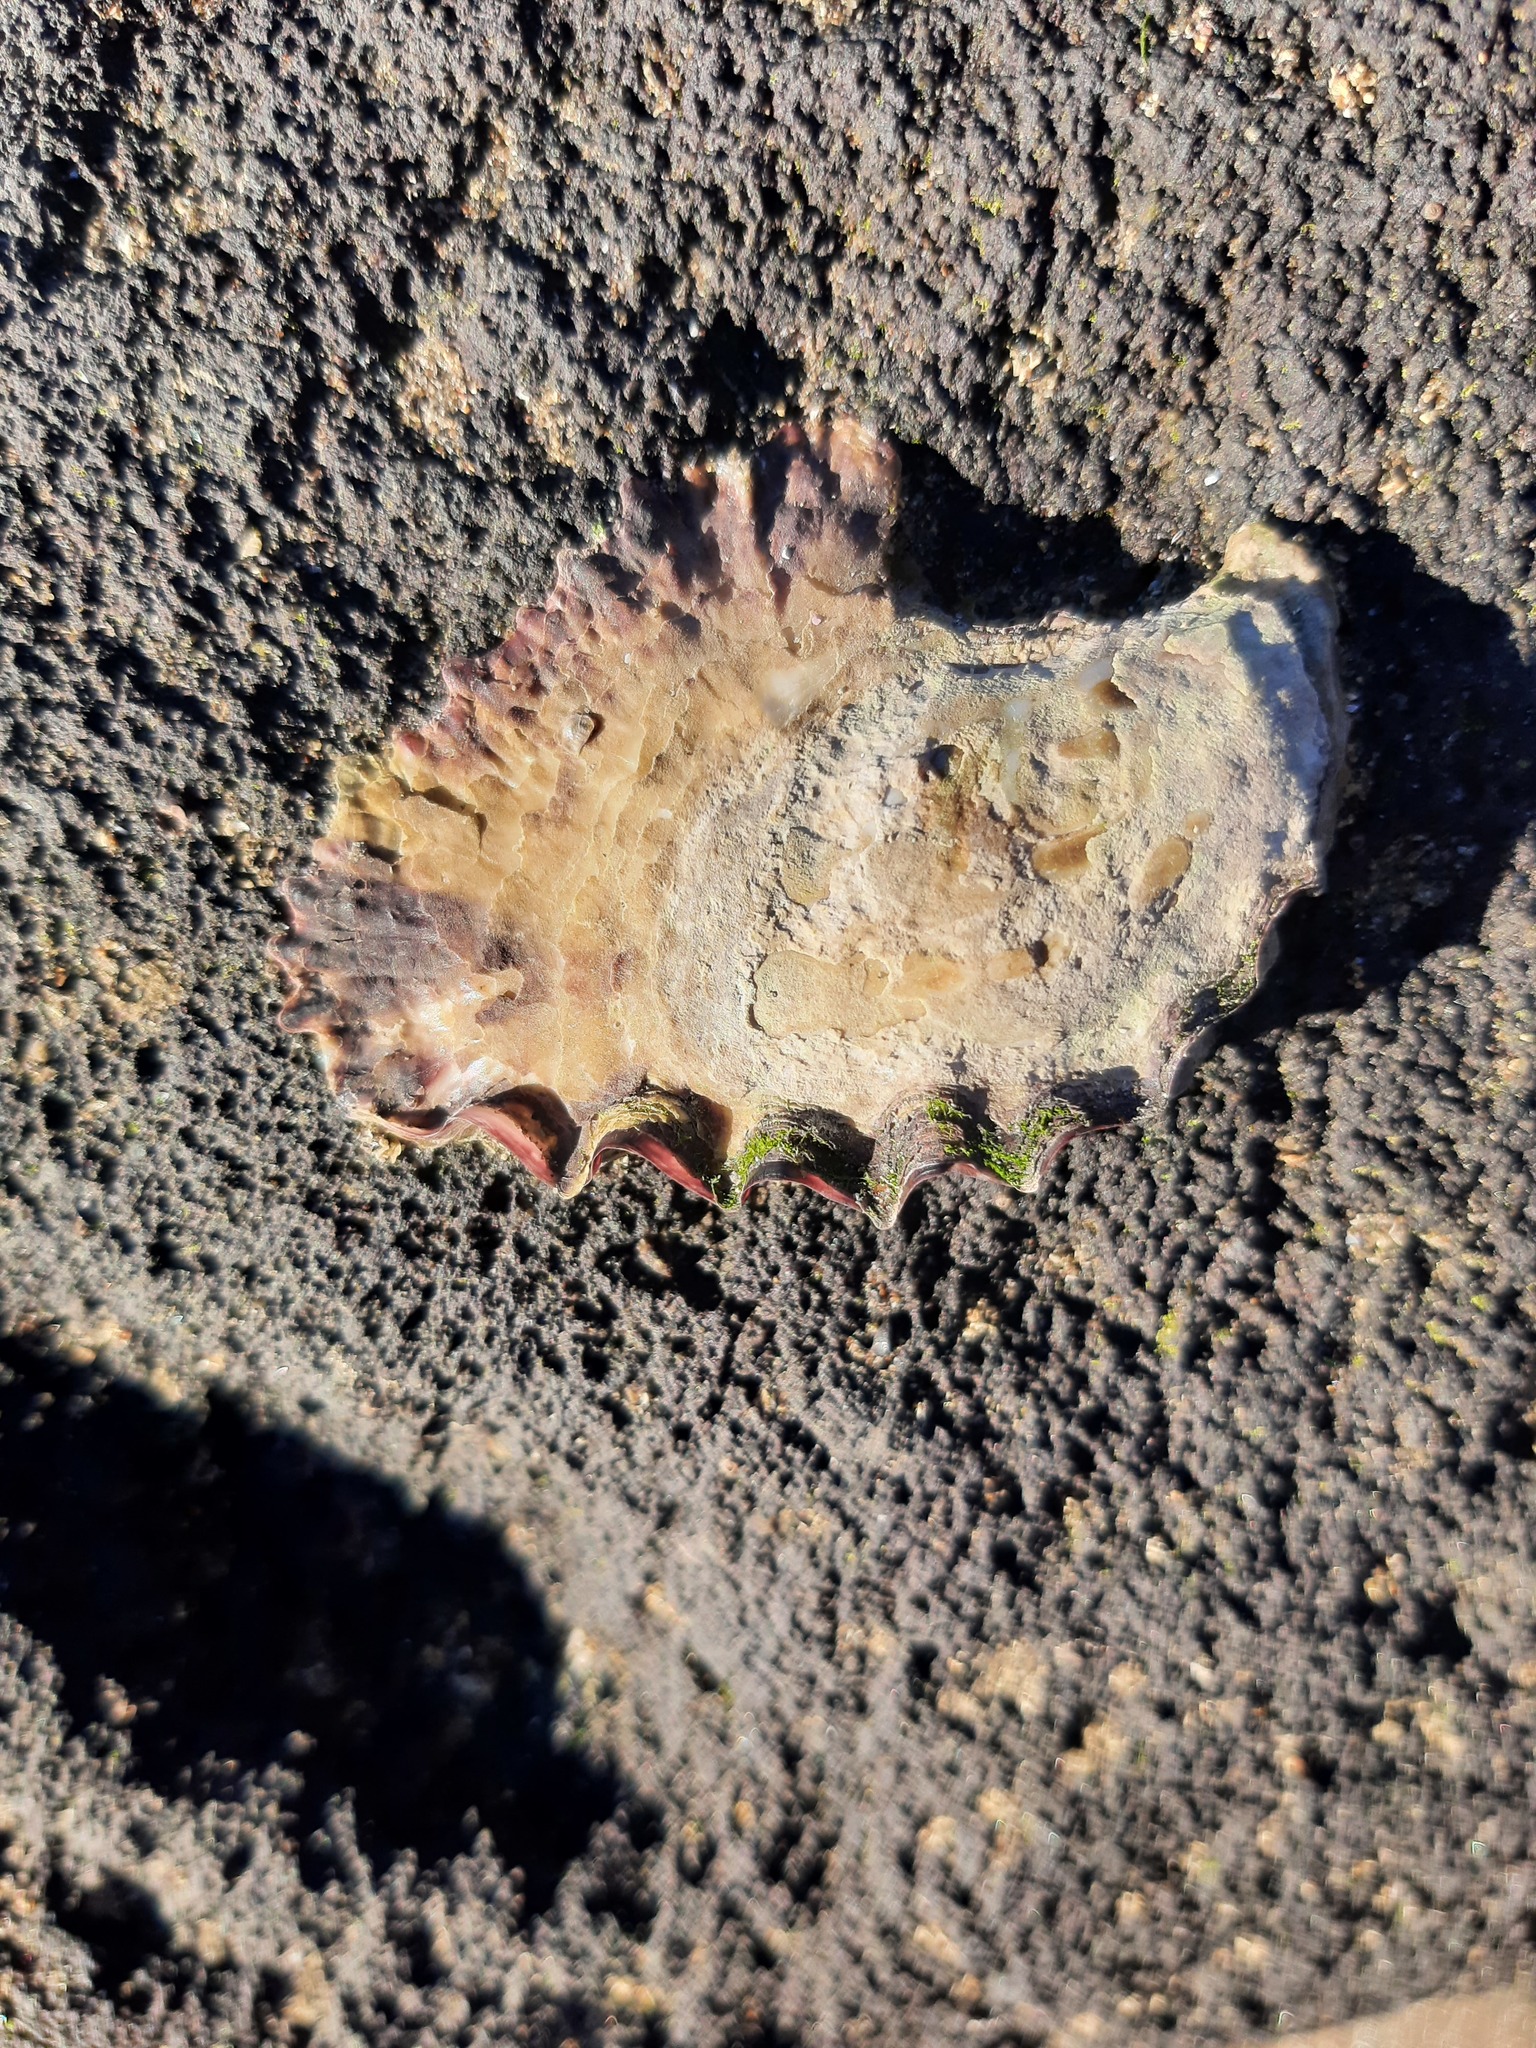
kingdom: Animalia
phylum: Mollusca
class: Bivalvia
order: Ostreida
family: Ostreidae
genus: Saccostrea
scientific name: Saccostrea glomerata
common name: Sydney cupped oyster
